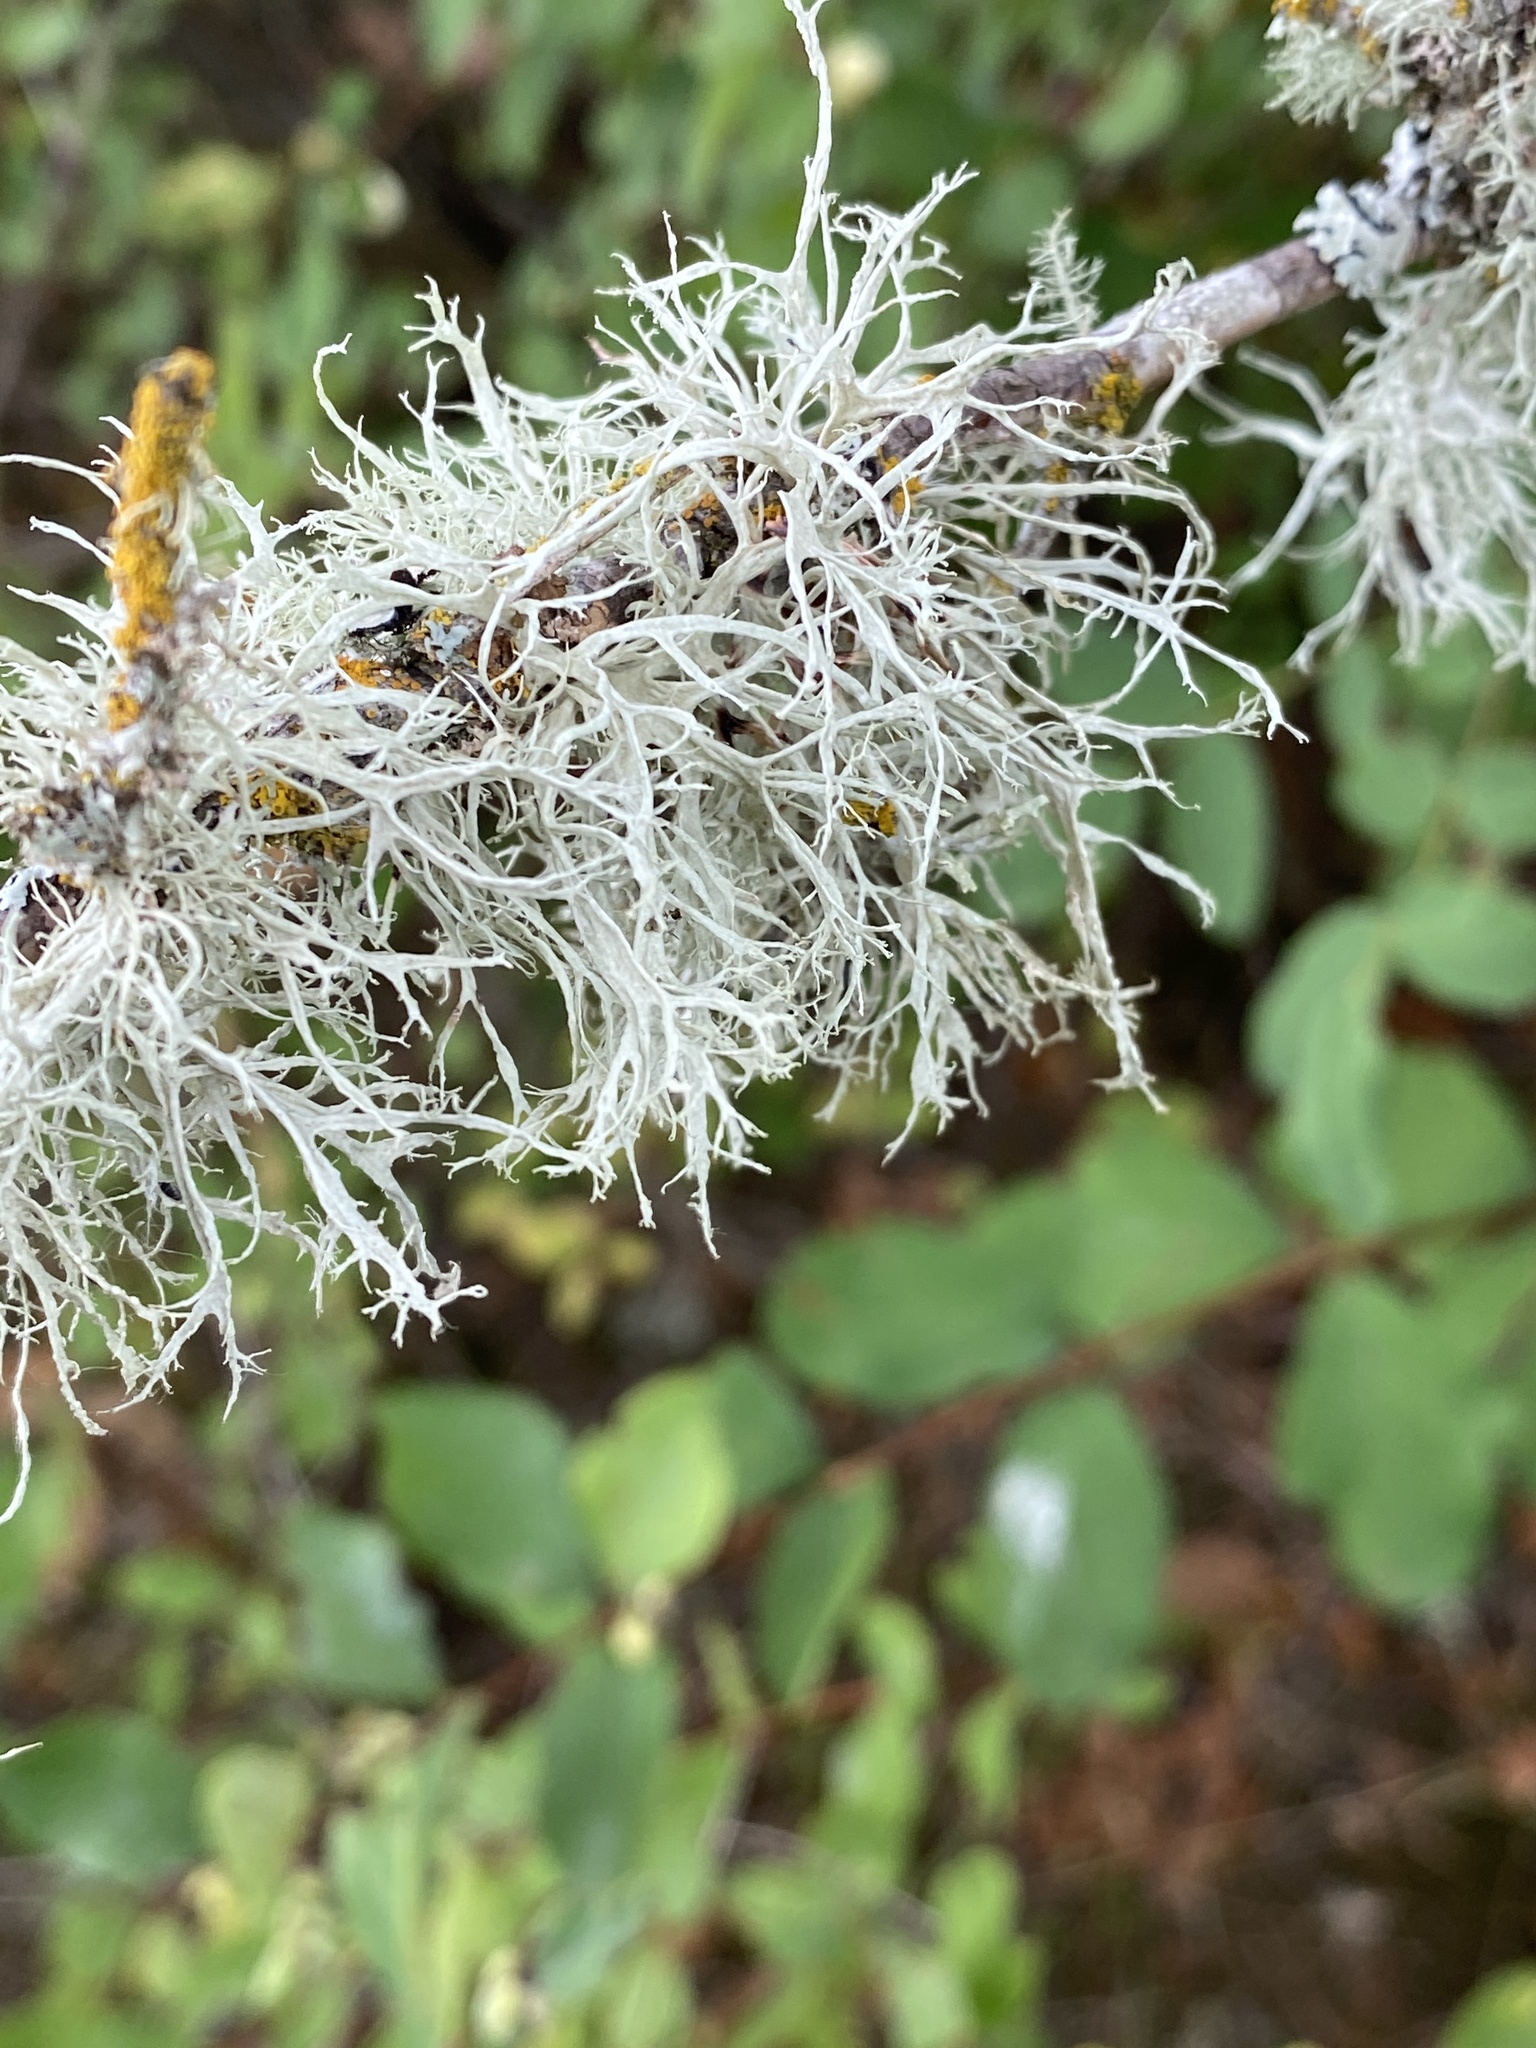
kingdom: Fungi
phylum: Ascomycota
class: Lecanoromycetes
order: Lecanorales
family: Parmeliaceae
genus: Evernia
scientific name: Evernia prunastri
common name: Oak moss
